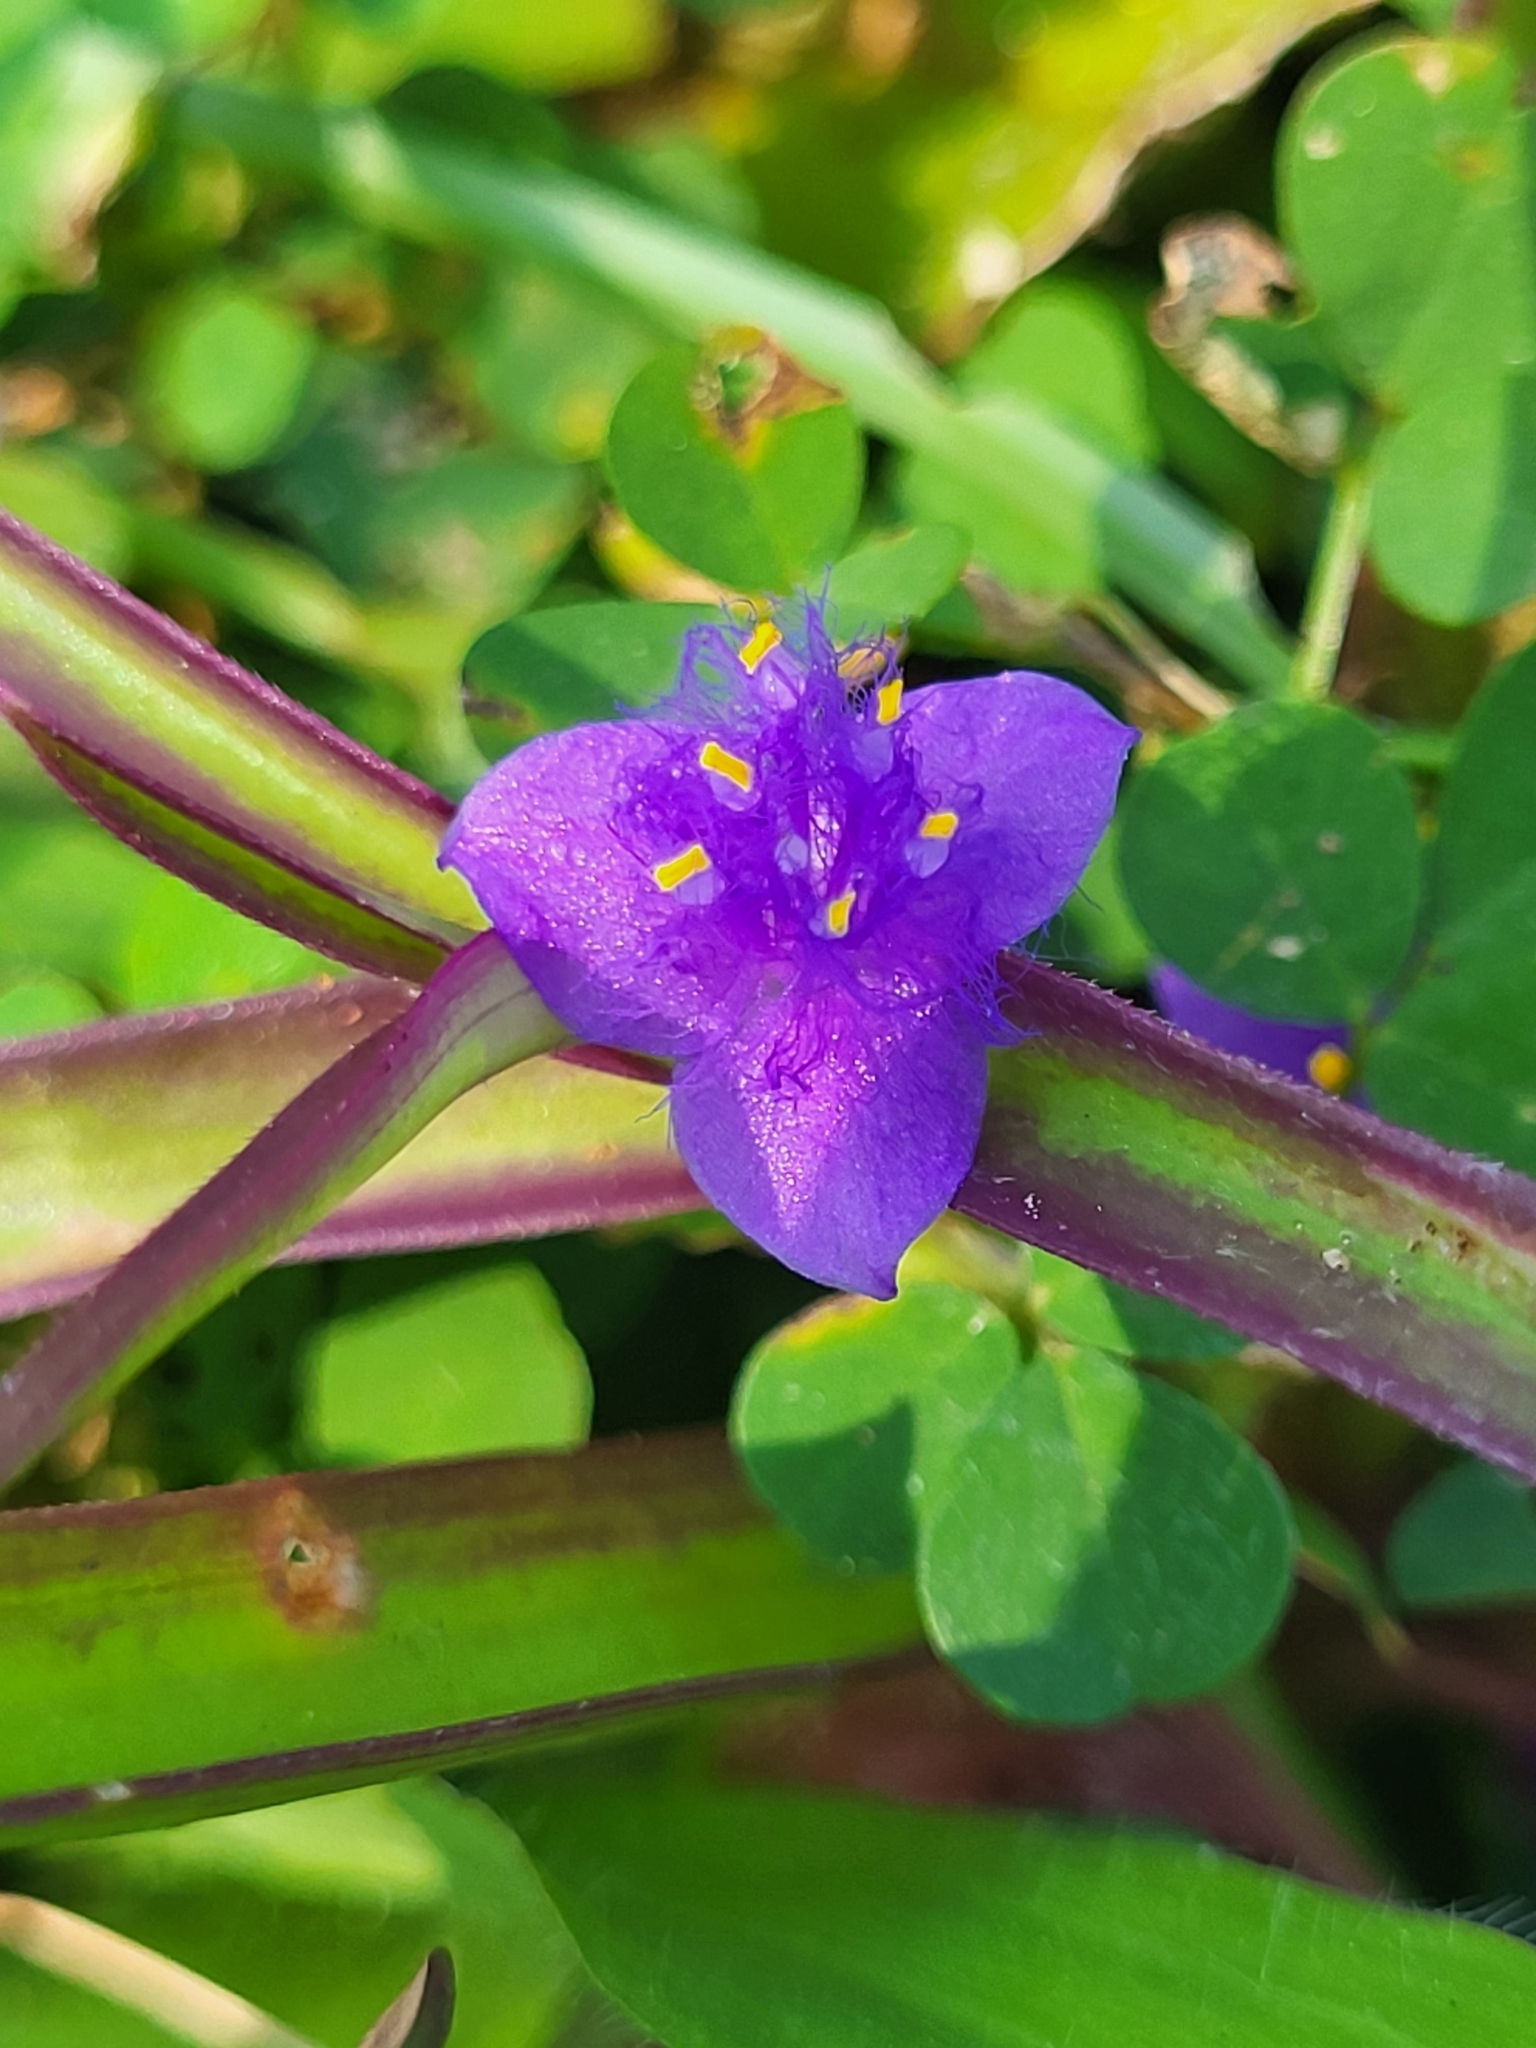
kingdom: Plantae
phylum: Tracheophyta
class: Liliopsida
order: Commelinales
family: Commelinaceae
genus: Cyanotis
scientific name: Cyanotis axillaris
